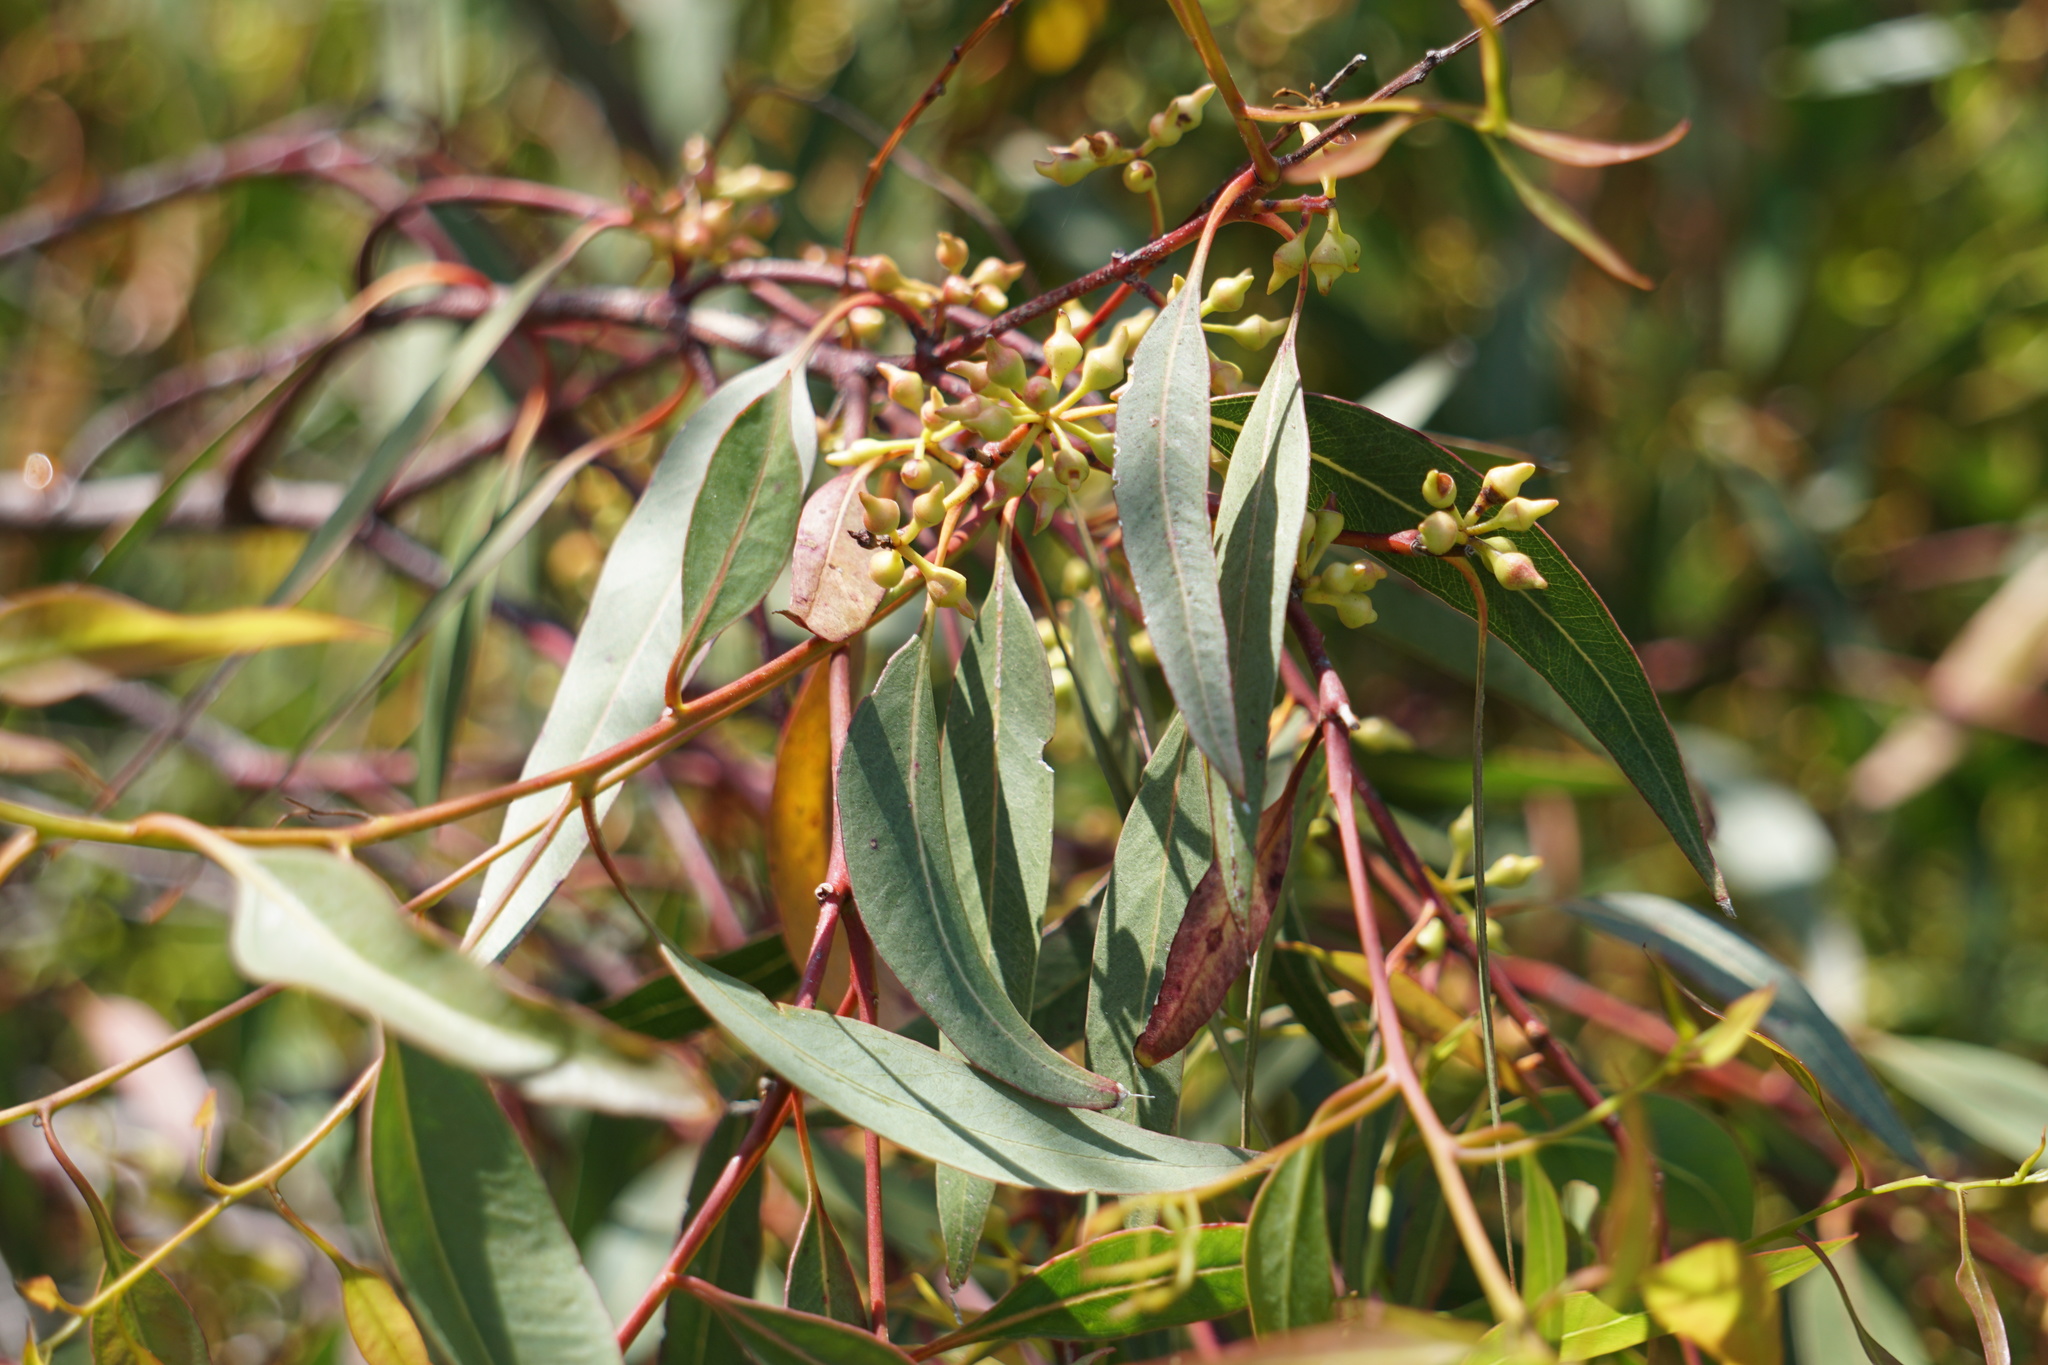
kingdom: Plantae
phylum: Tracheophyta
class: Magnoliopsida
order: Myrtales
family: Myrtaceae
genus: Eucalyptus
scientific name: Eucalyptus camaldulensis
